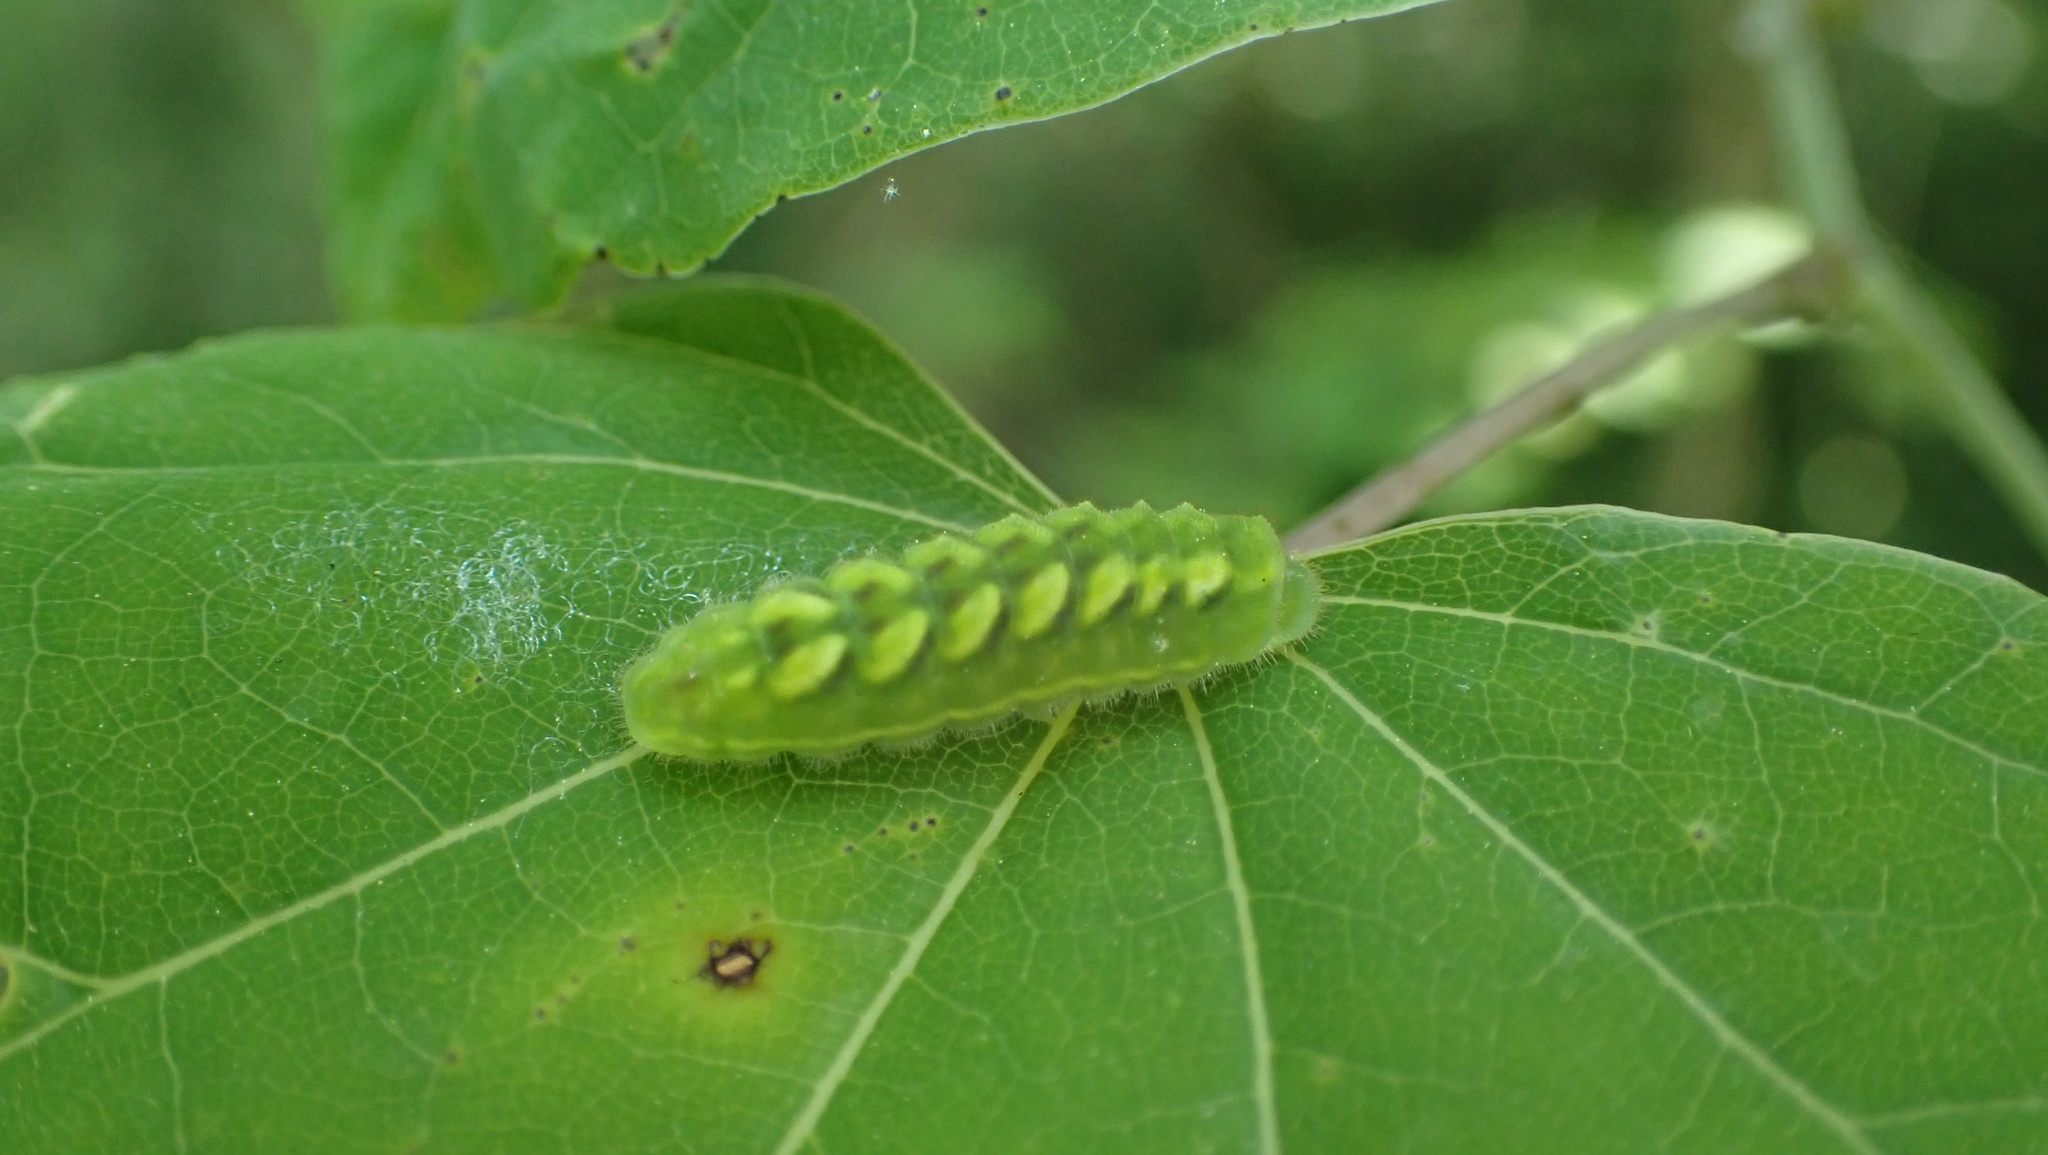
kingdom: Animalia
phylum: Arthropoda
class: Insecta
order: Lepidoptera
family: Lycaenidae
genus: Incisalia
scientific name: Incisalia henrici
